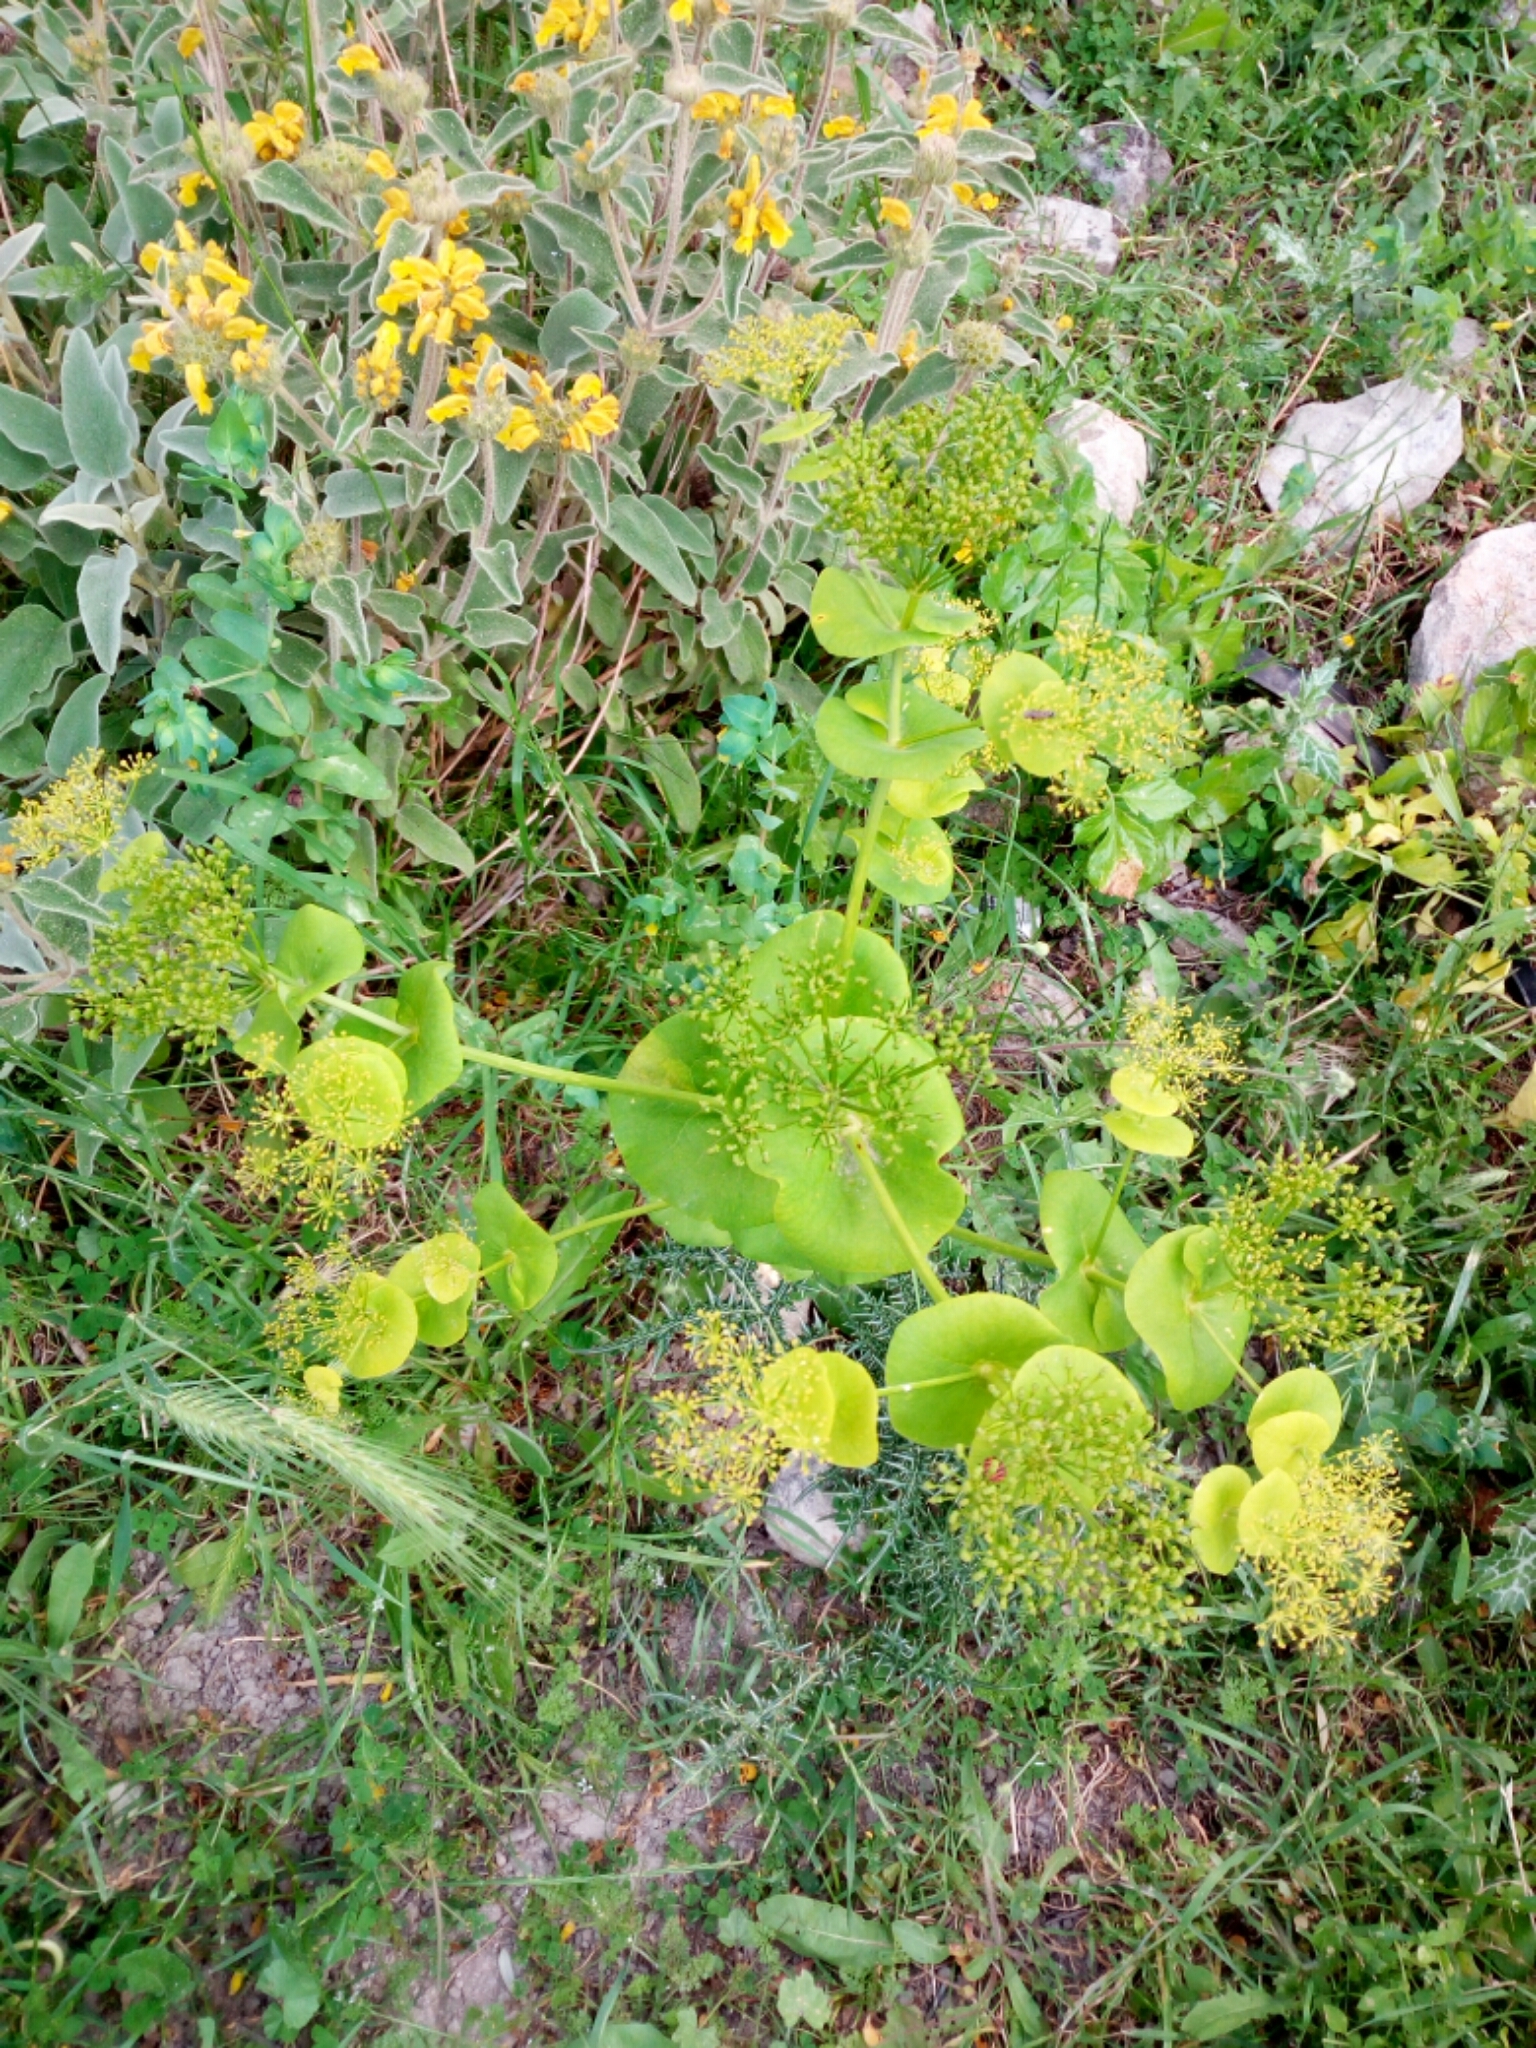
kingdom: Plantae
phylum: Tracheophyta
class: Magnoliopsida
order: Apiales
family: Apiaceae
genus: Smyrnium
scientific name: Smyrnium perfoliatum
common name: Perfoliate alexanders
